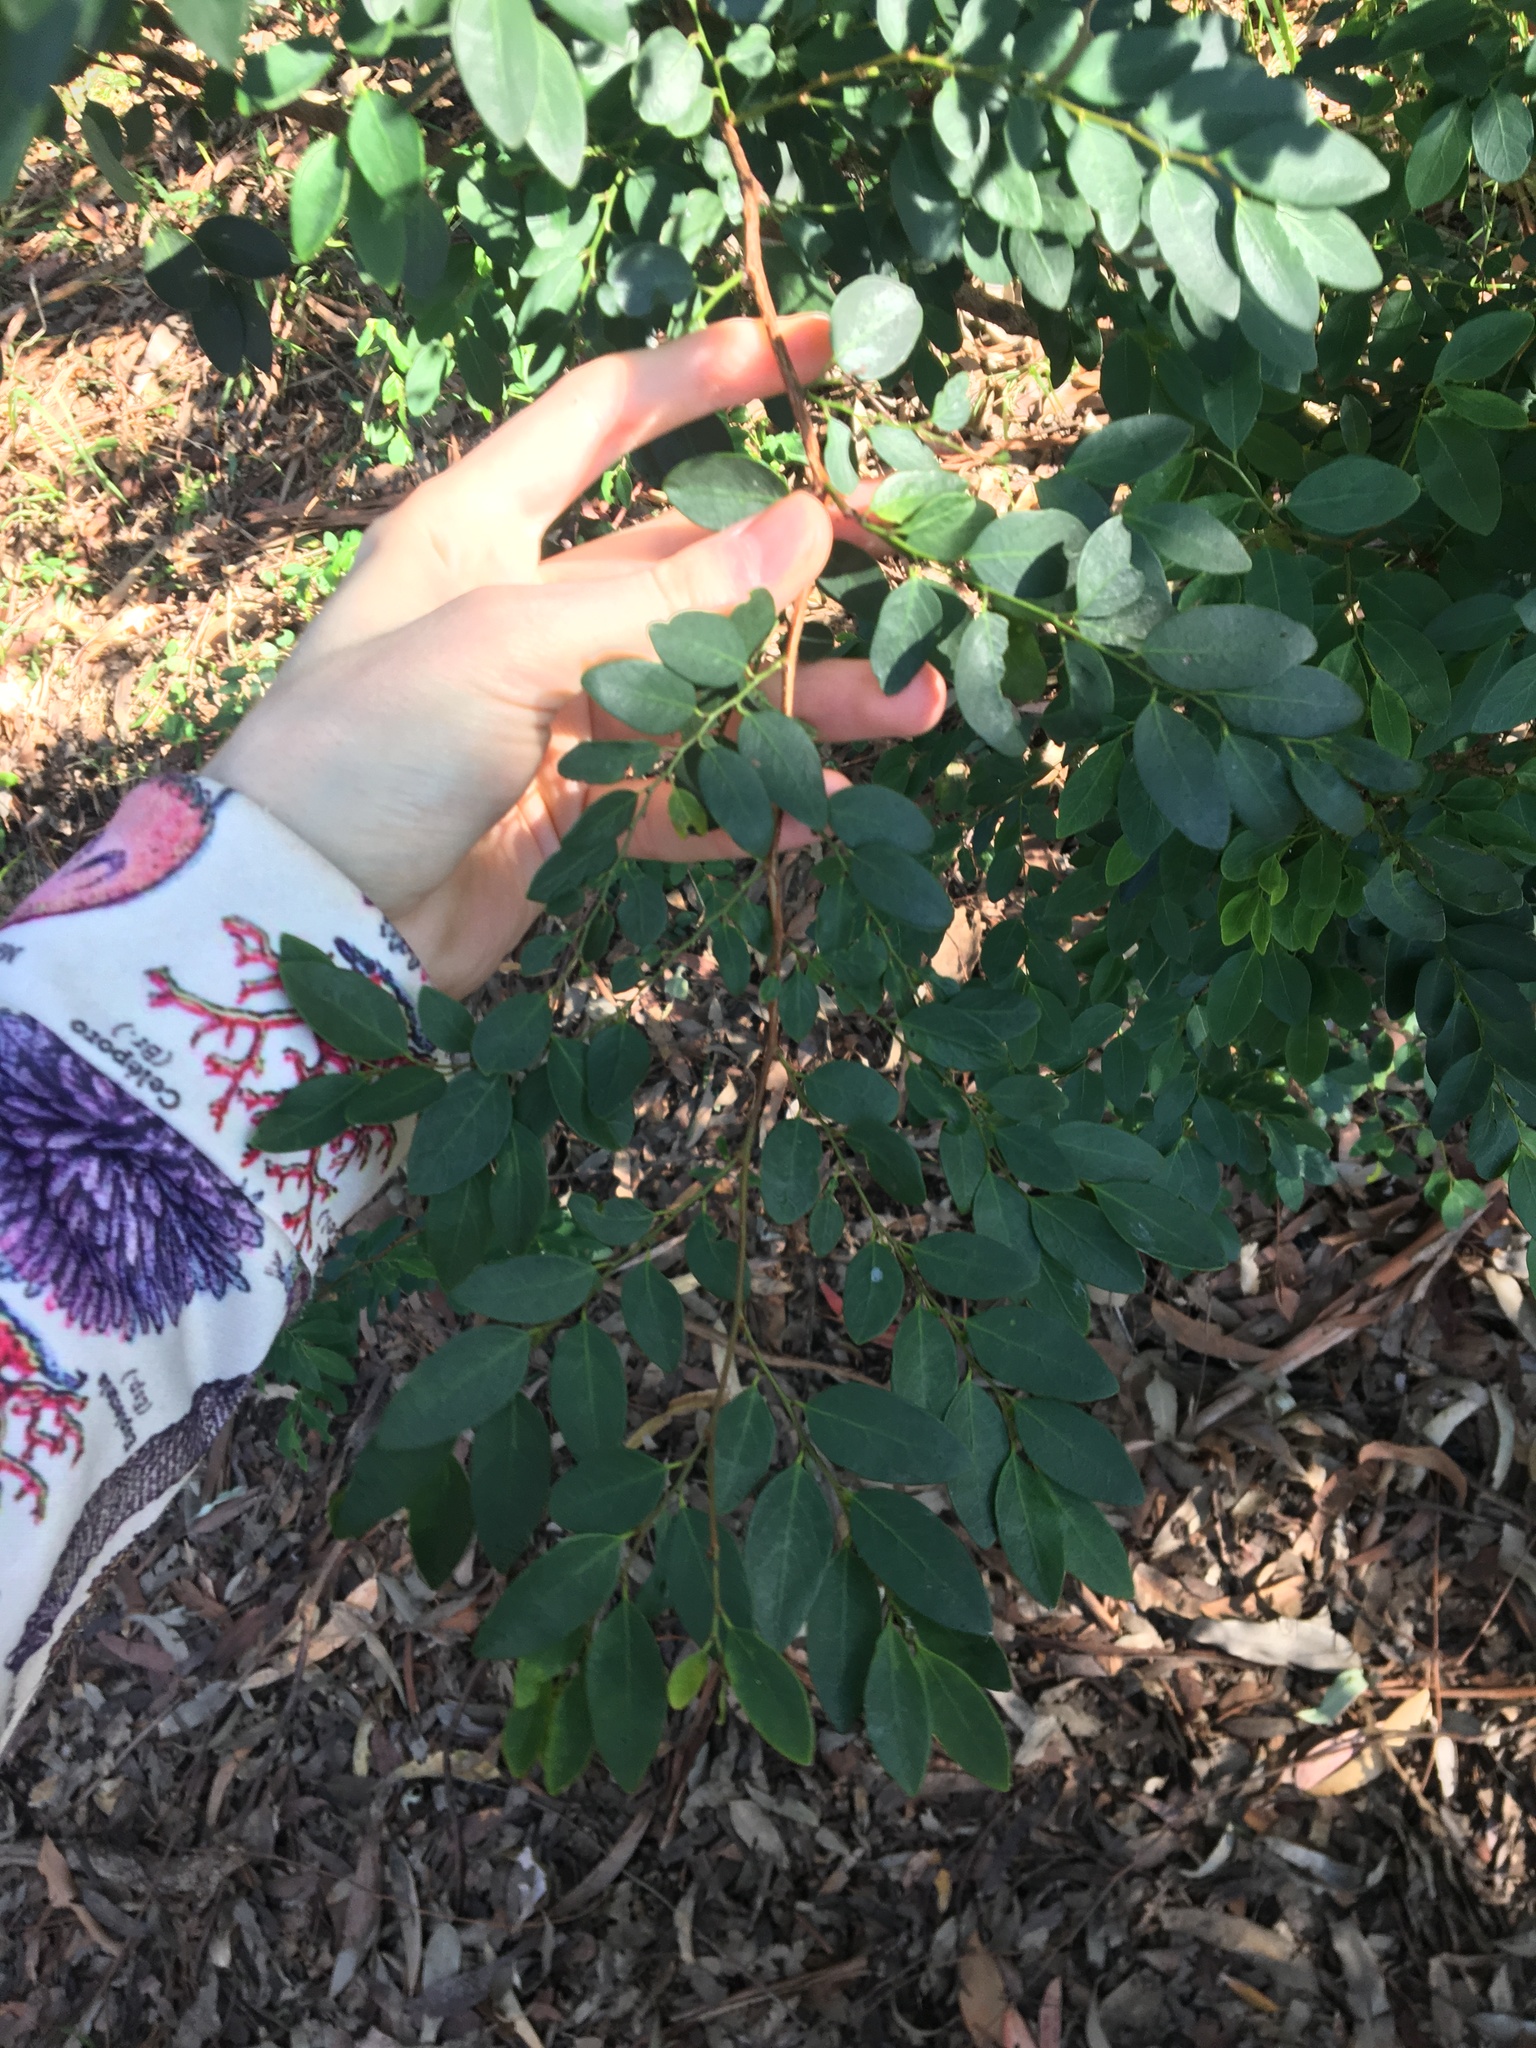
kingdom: Plantae
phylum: Tracheophyta
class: Magnoliopsida
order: Malpighiales
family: Phyllanthaceae
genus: Breynia
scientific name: Breynia oblongifolia
